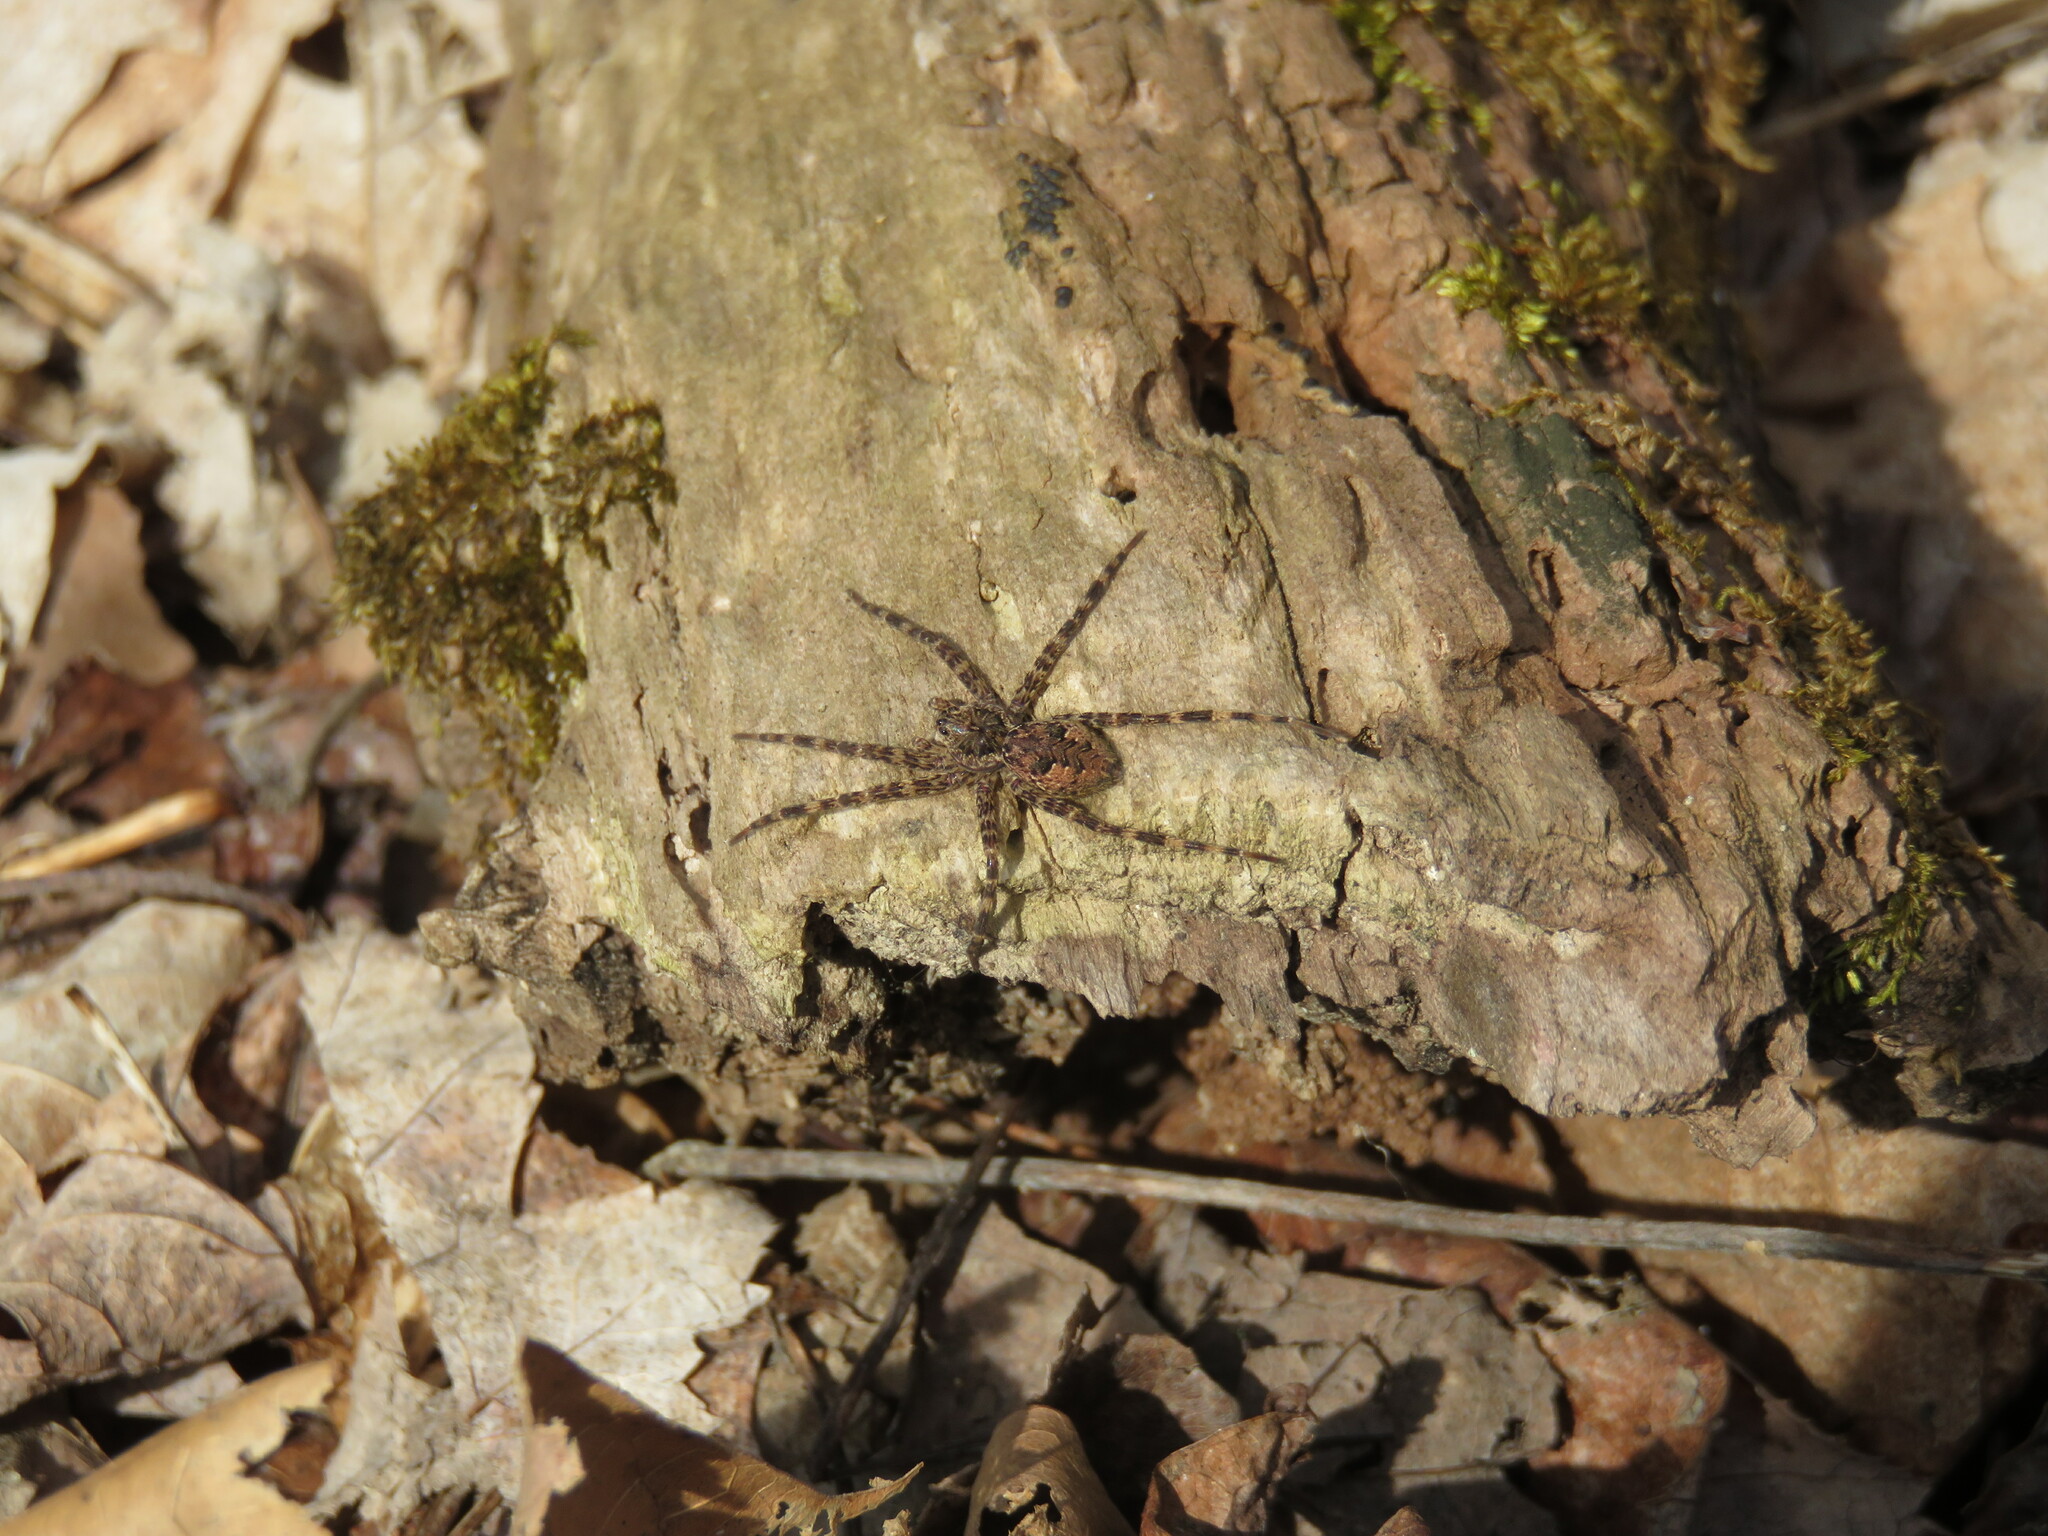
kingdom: Animalia
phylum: Arthropoda
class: Arachnida
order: Araneae
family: Pisauridae
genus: Dolomedes
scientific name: Dolomedes tenebrosus
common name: Dark fishing spider
